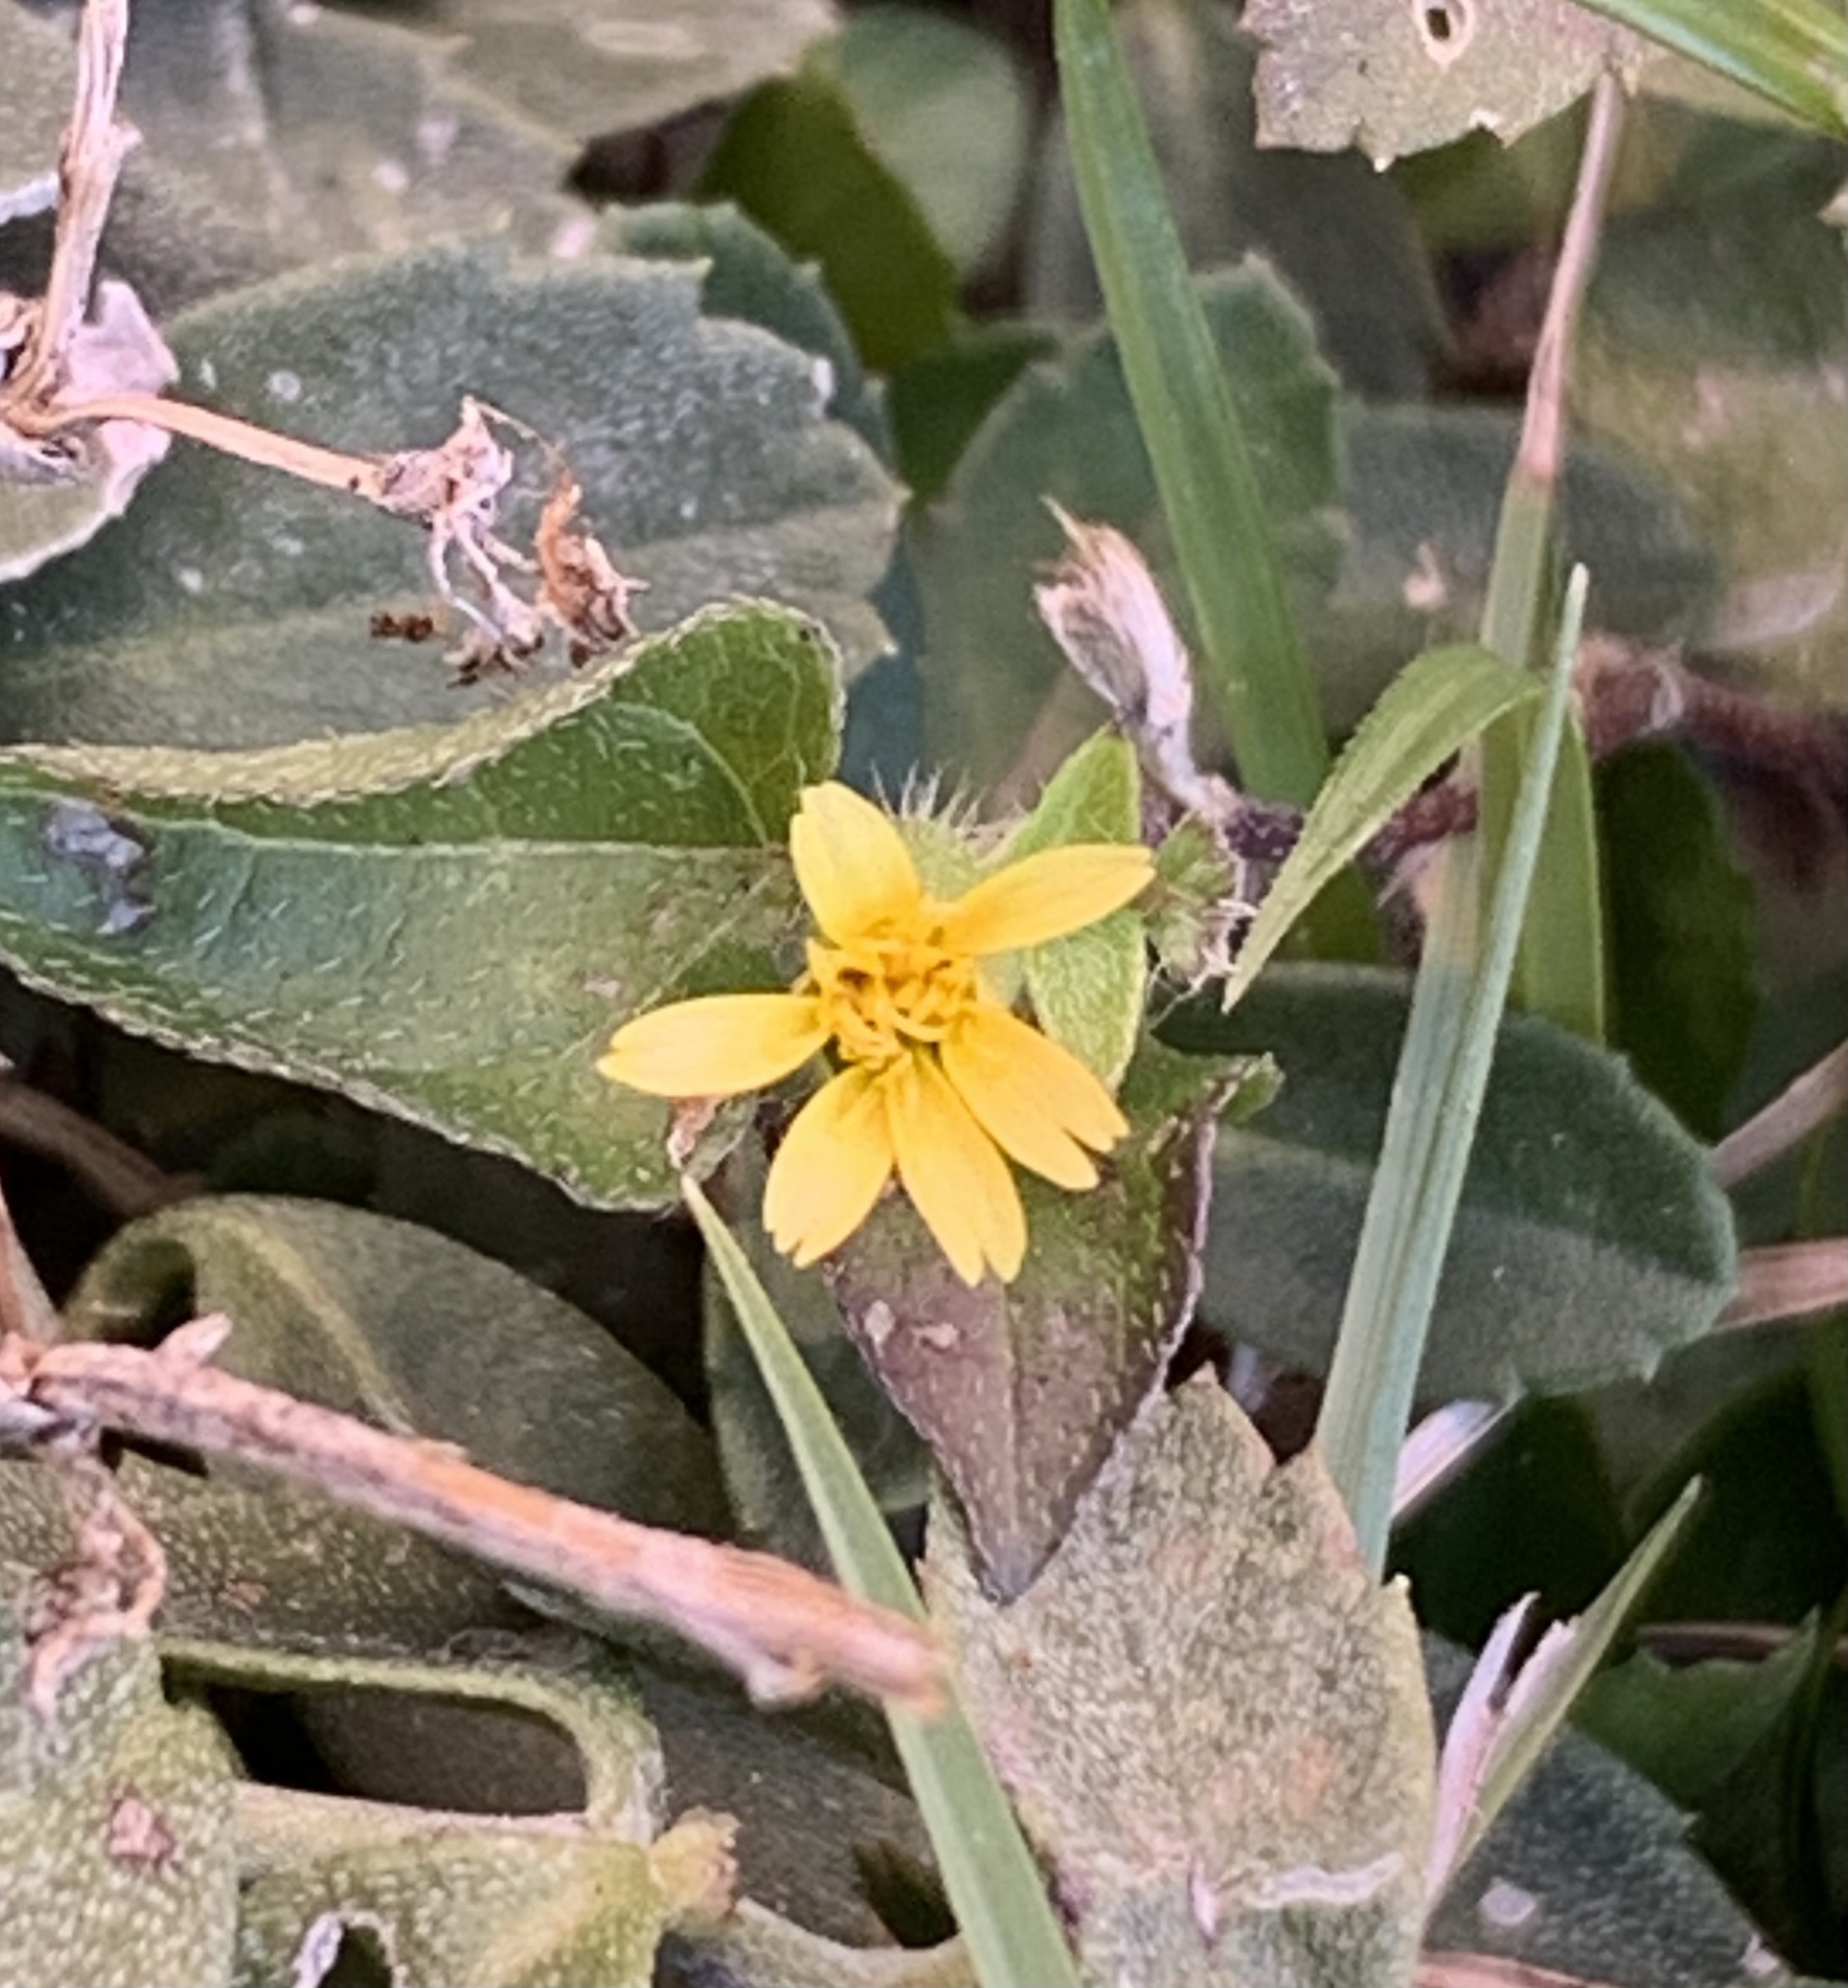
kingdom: Plantae
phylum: Tracheophyta
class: Magnoliopsida
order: Asterales
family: Asteraceae
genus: Calyptocarpus
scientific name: Calyptocarpus vialis
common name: Straggler daisy
